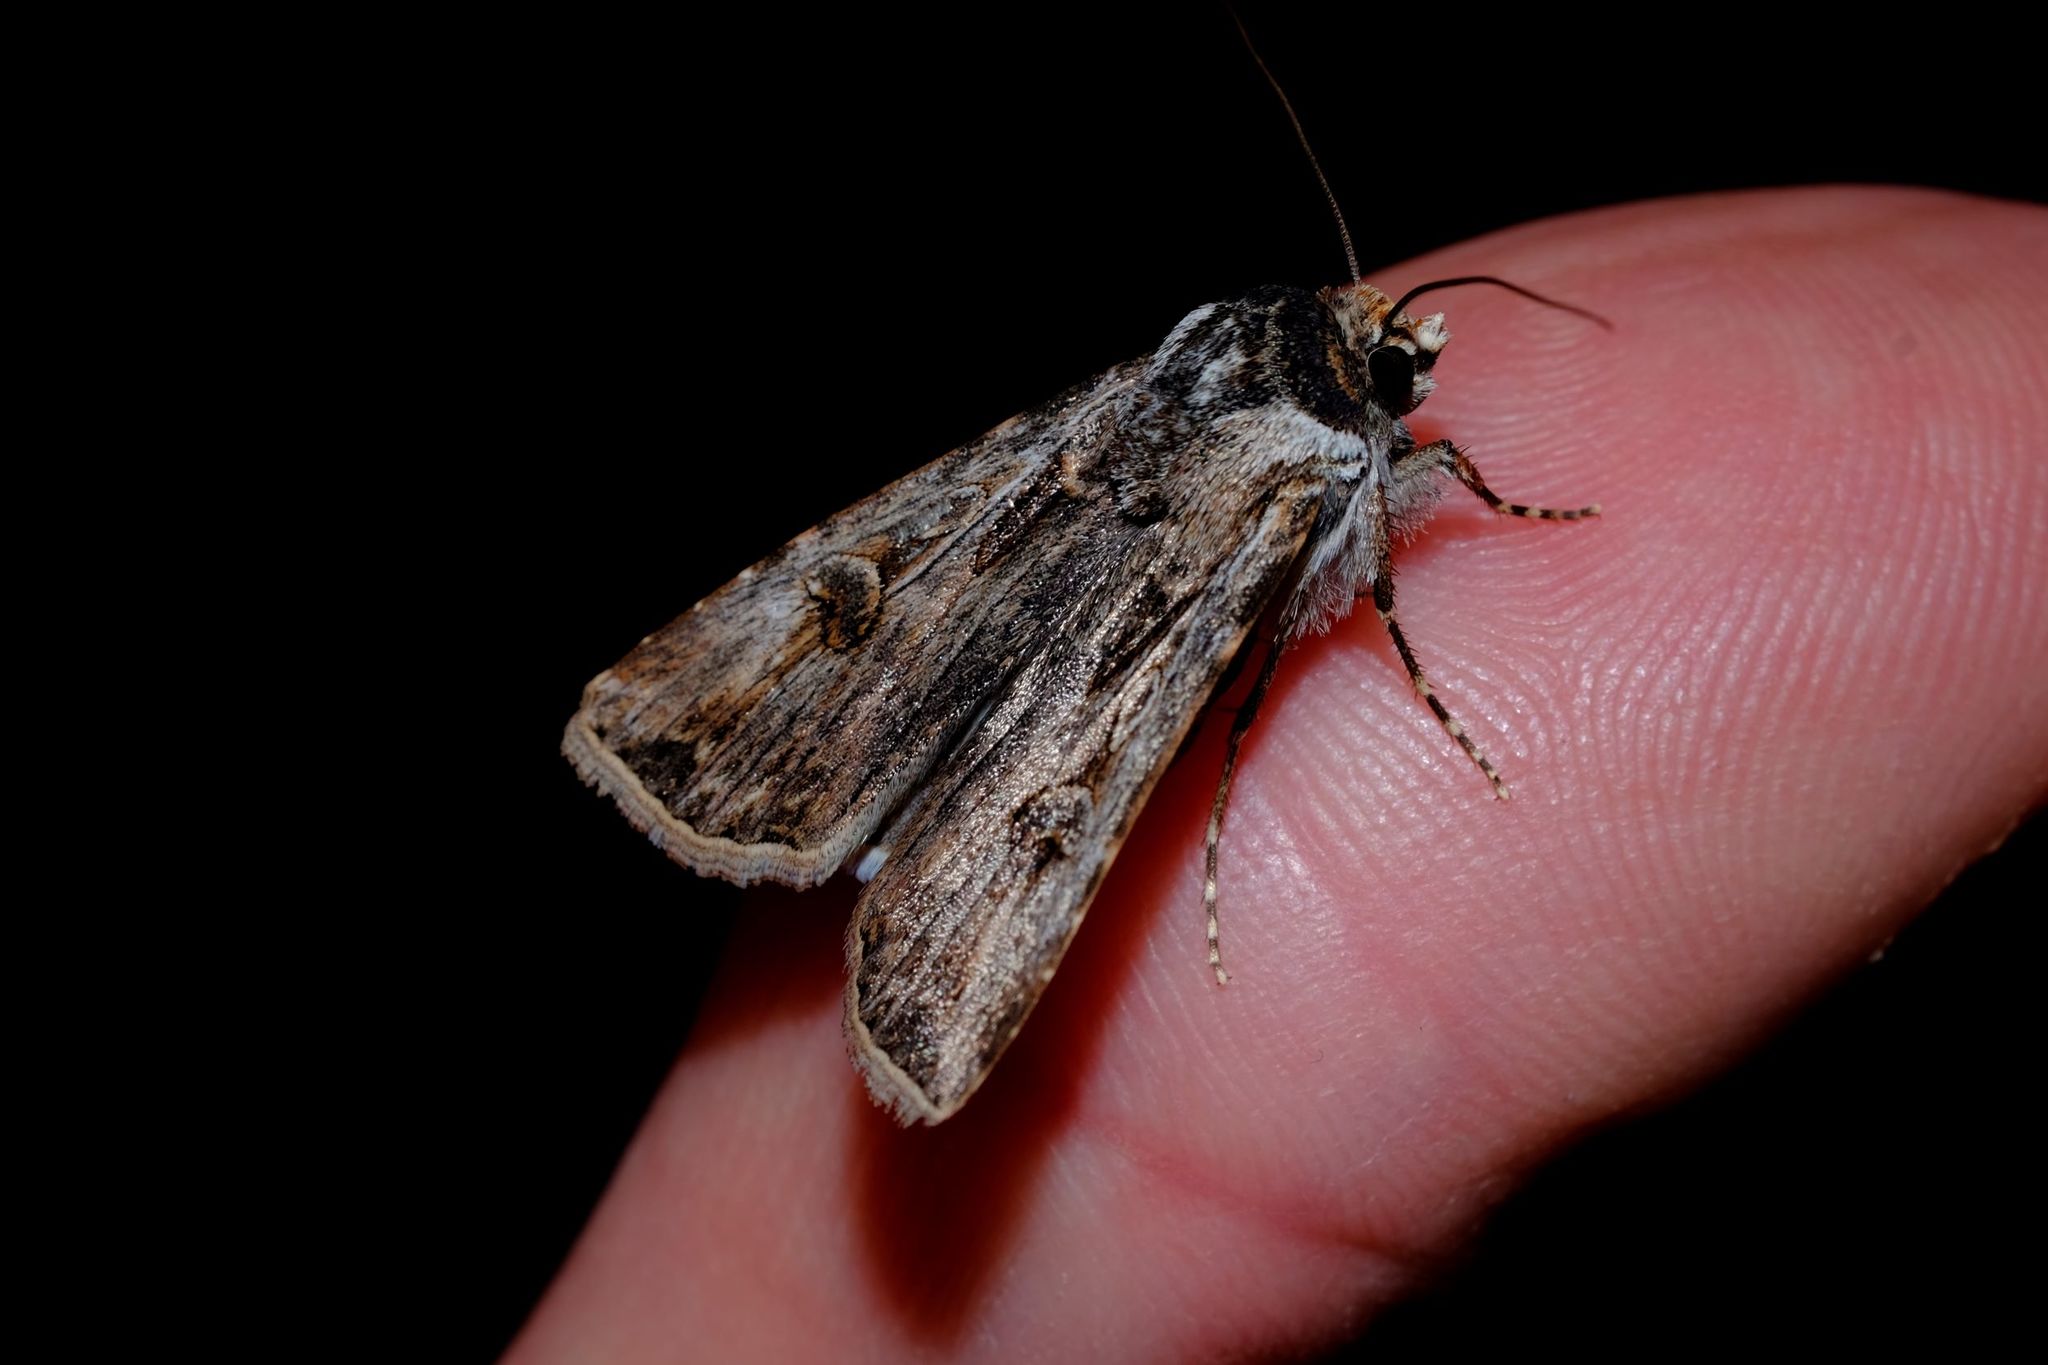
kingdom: Animalia
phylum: Arthropoda
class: Insecta
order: Lepidoptera
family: Noctuidae
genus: Agrotis
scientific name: Agrotis munda
